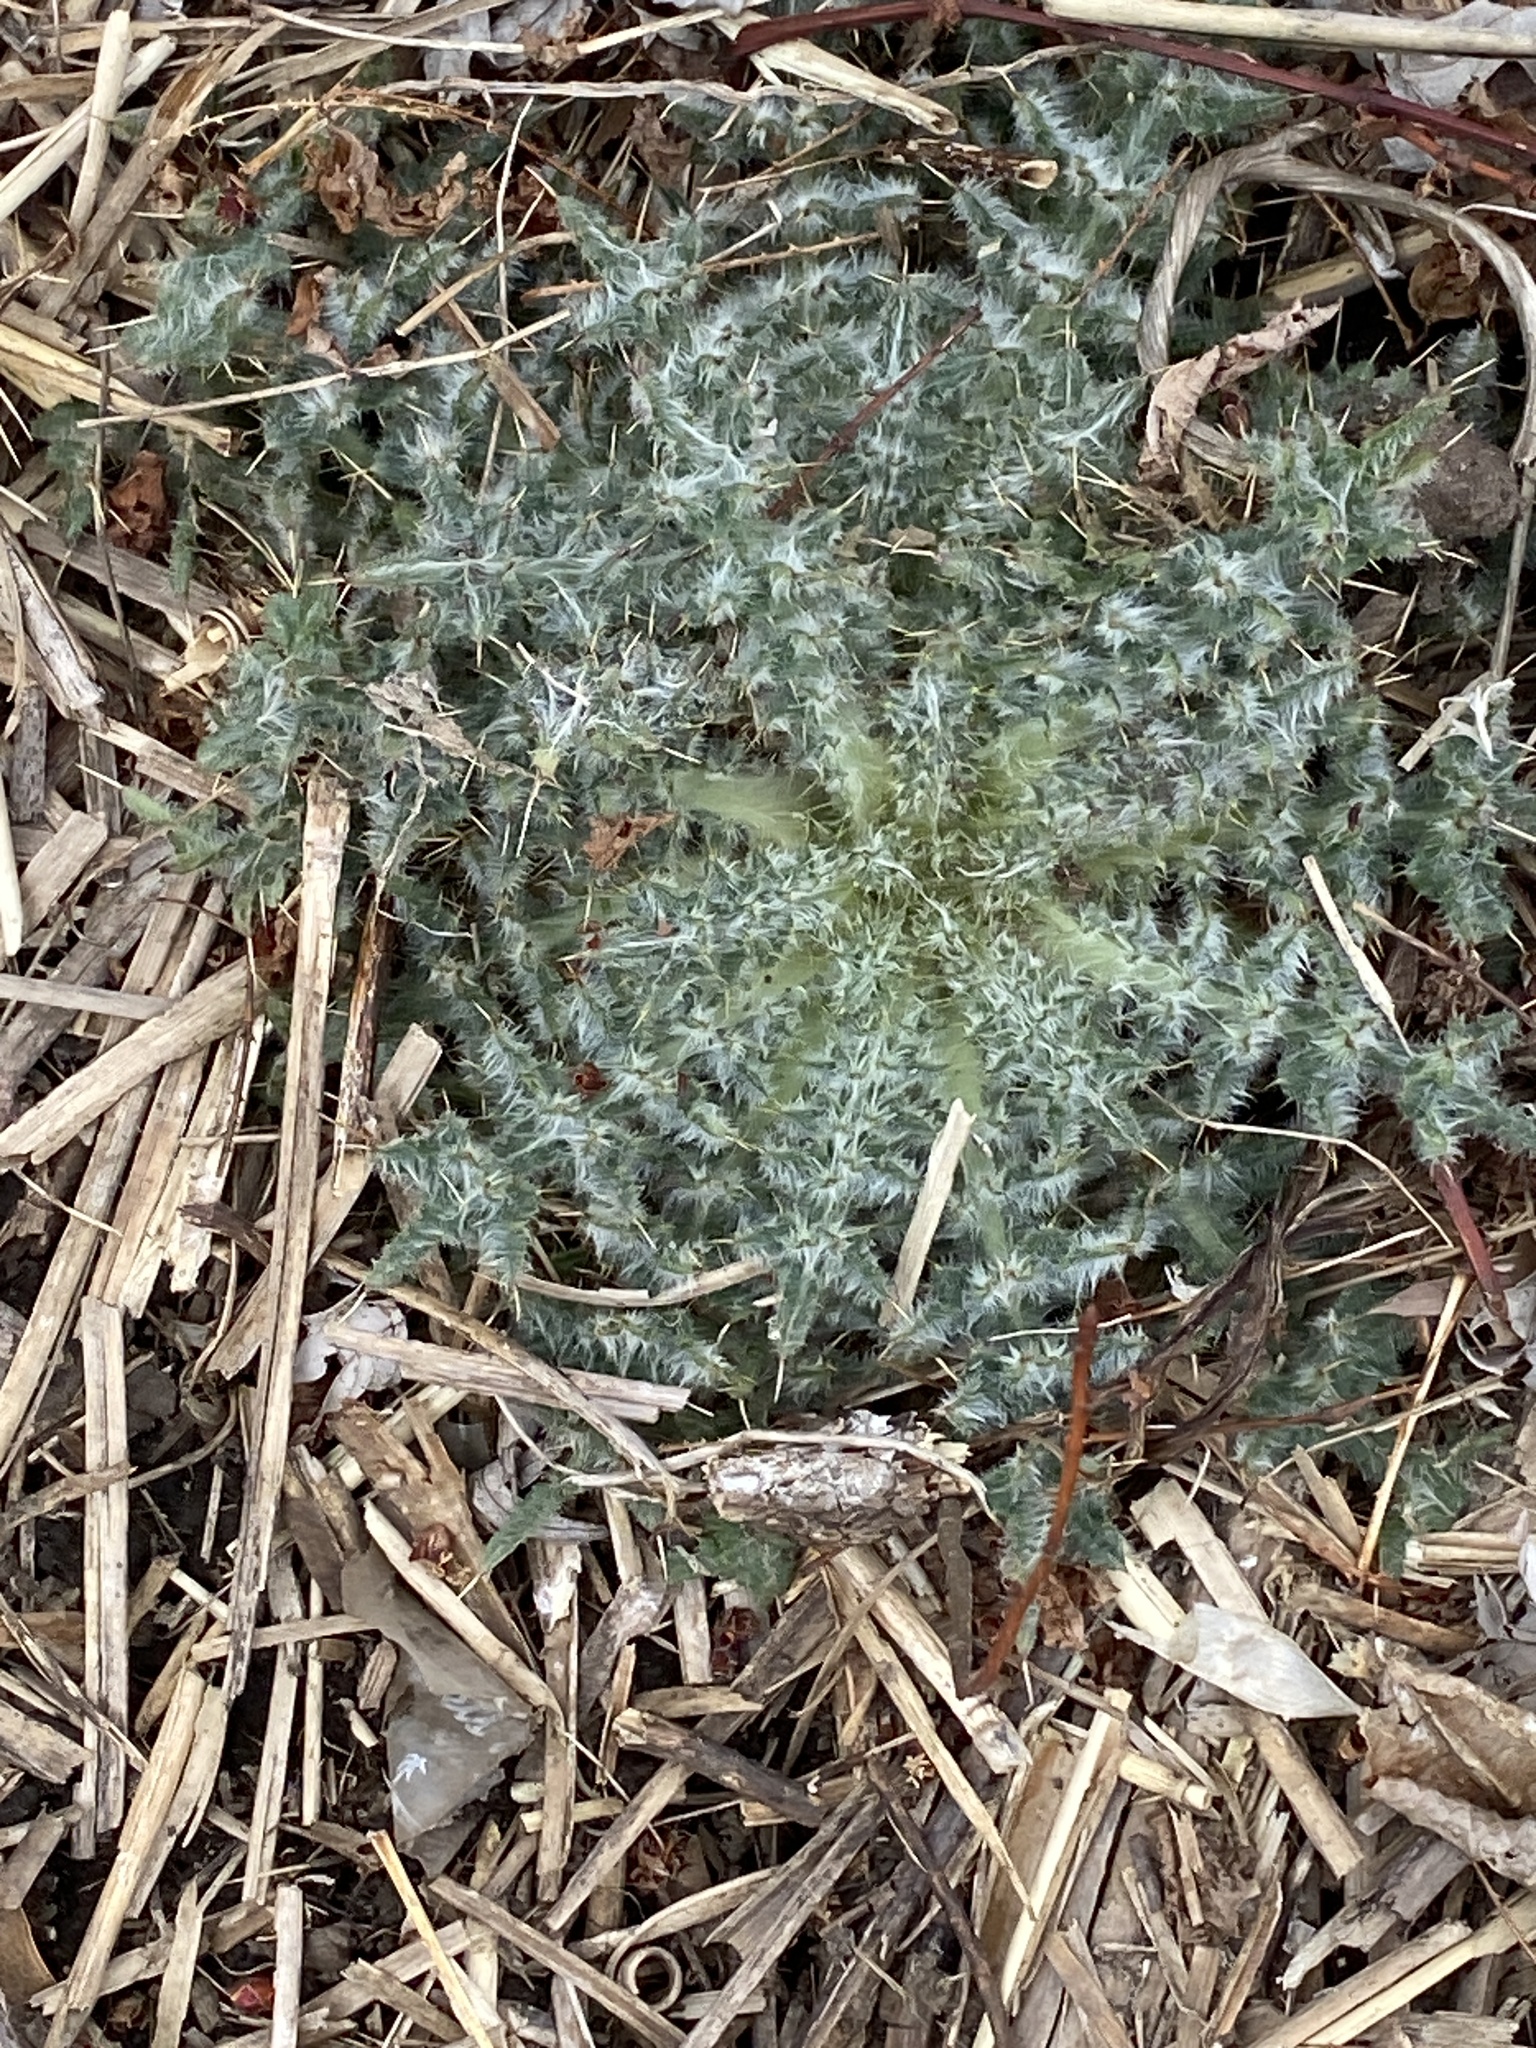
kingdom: Plantae
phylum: Tracheophyta
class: Magnoliopsida
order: Asterales
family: Asteraceae
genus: Cirsium
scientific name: Cirsium vulgare
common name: Bull thistle
